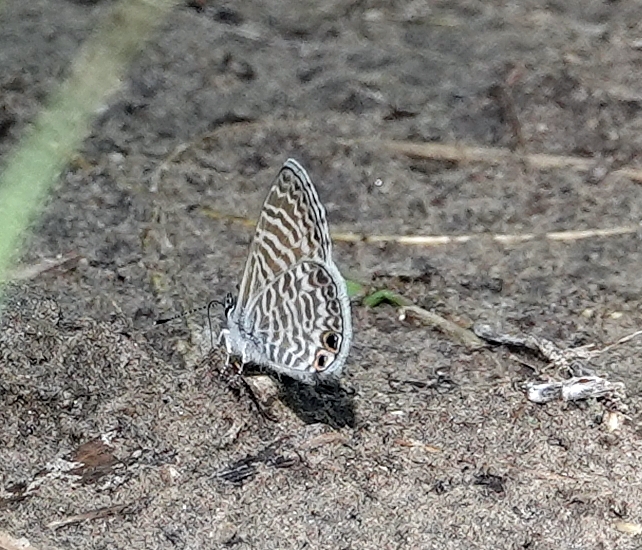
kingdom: Animalia
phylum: Arthropoda
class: Insecta
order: Lepidoptera
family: Lycaenidae
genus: Leptotes
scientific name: Leptotes marina
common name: Marine blue
